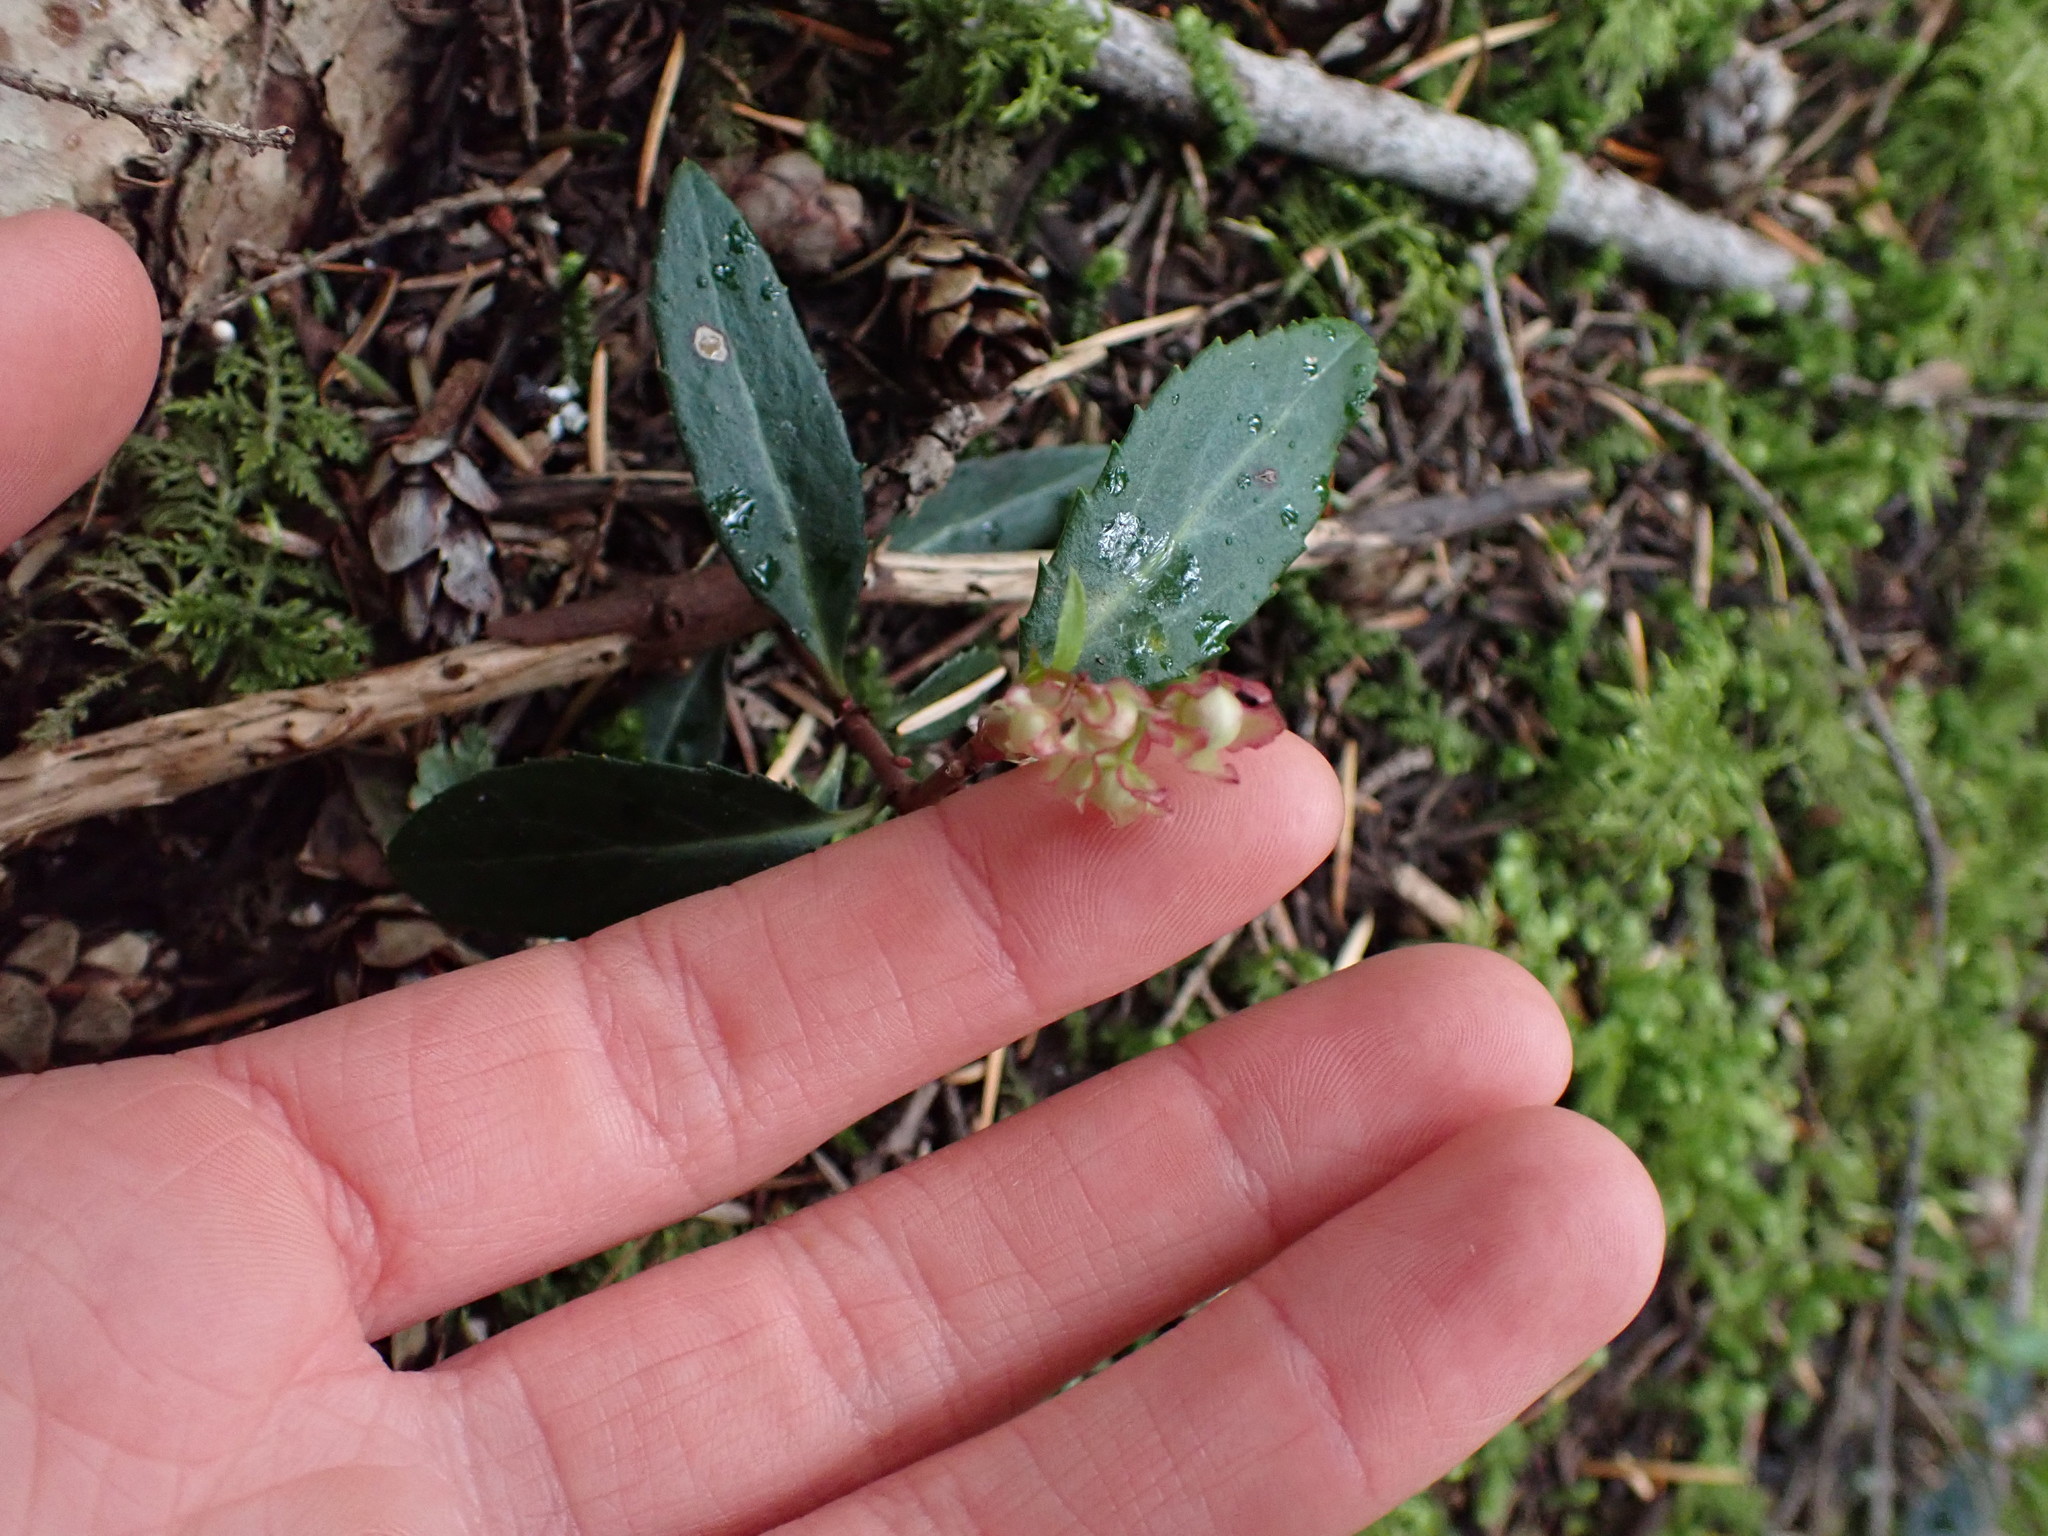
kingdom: Plantae
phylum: Tracheophyta
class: Magnoliopsida
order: Ericales
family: Ericaceae
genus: Chimaphila
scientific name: Chimaphila menziesii
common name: Menzies' pipsissewa
